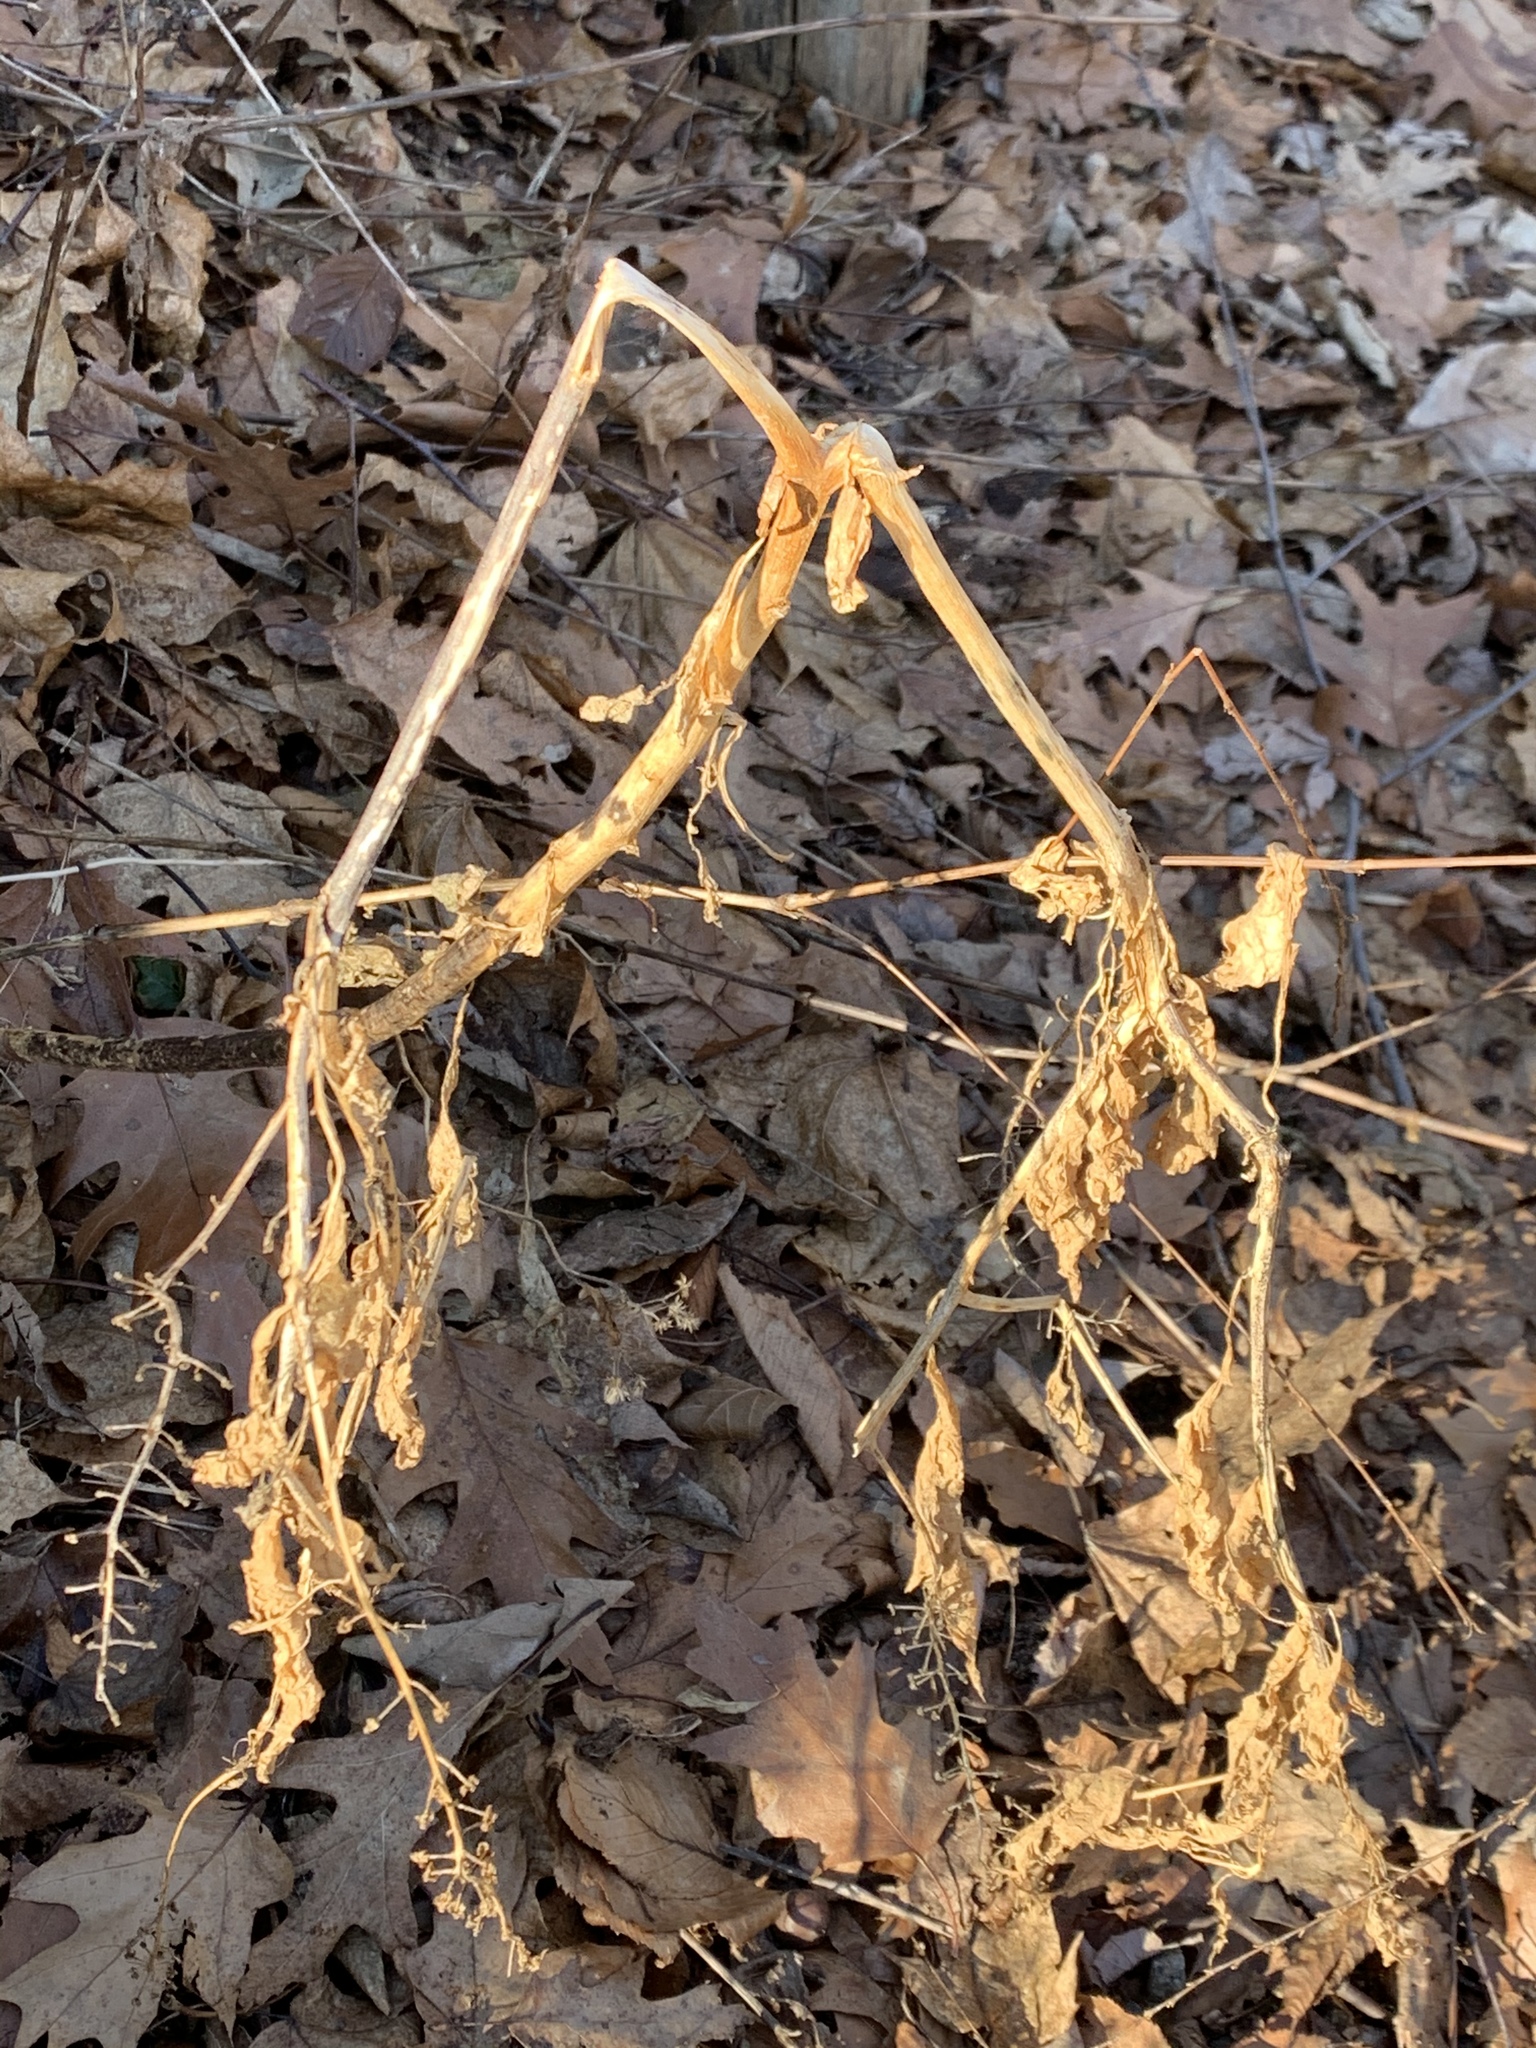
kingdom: Plantae
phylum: Tracheophyta
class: Magnoliopsida
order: Caryophyllales
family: Phytolaccaceae
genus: Phytolacca
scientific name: Phytolacca americana
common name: American pokeweed
